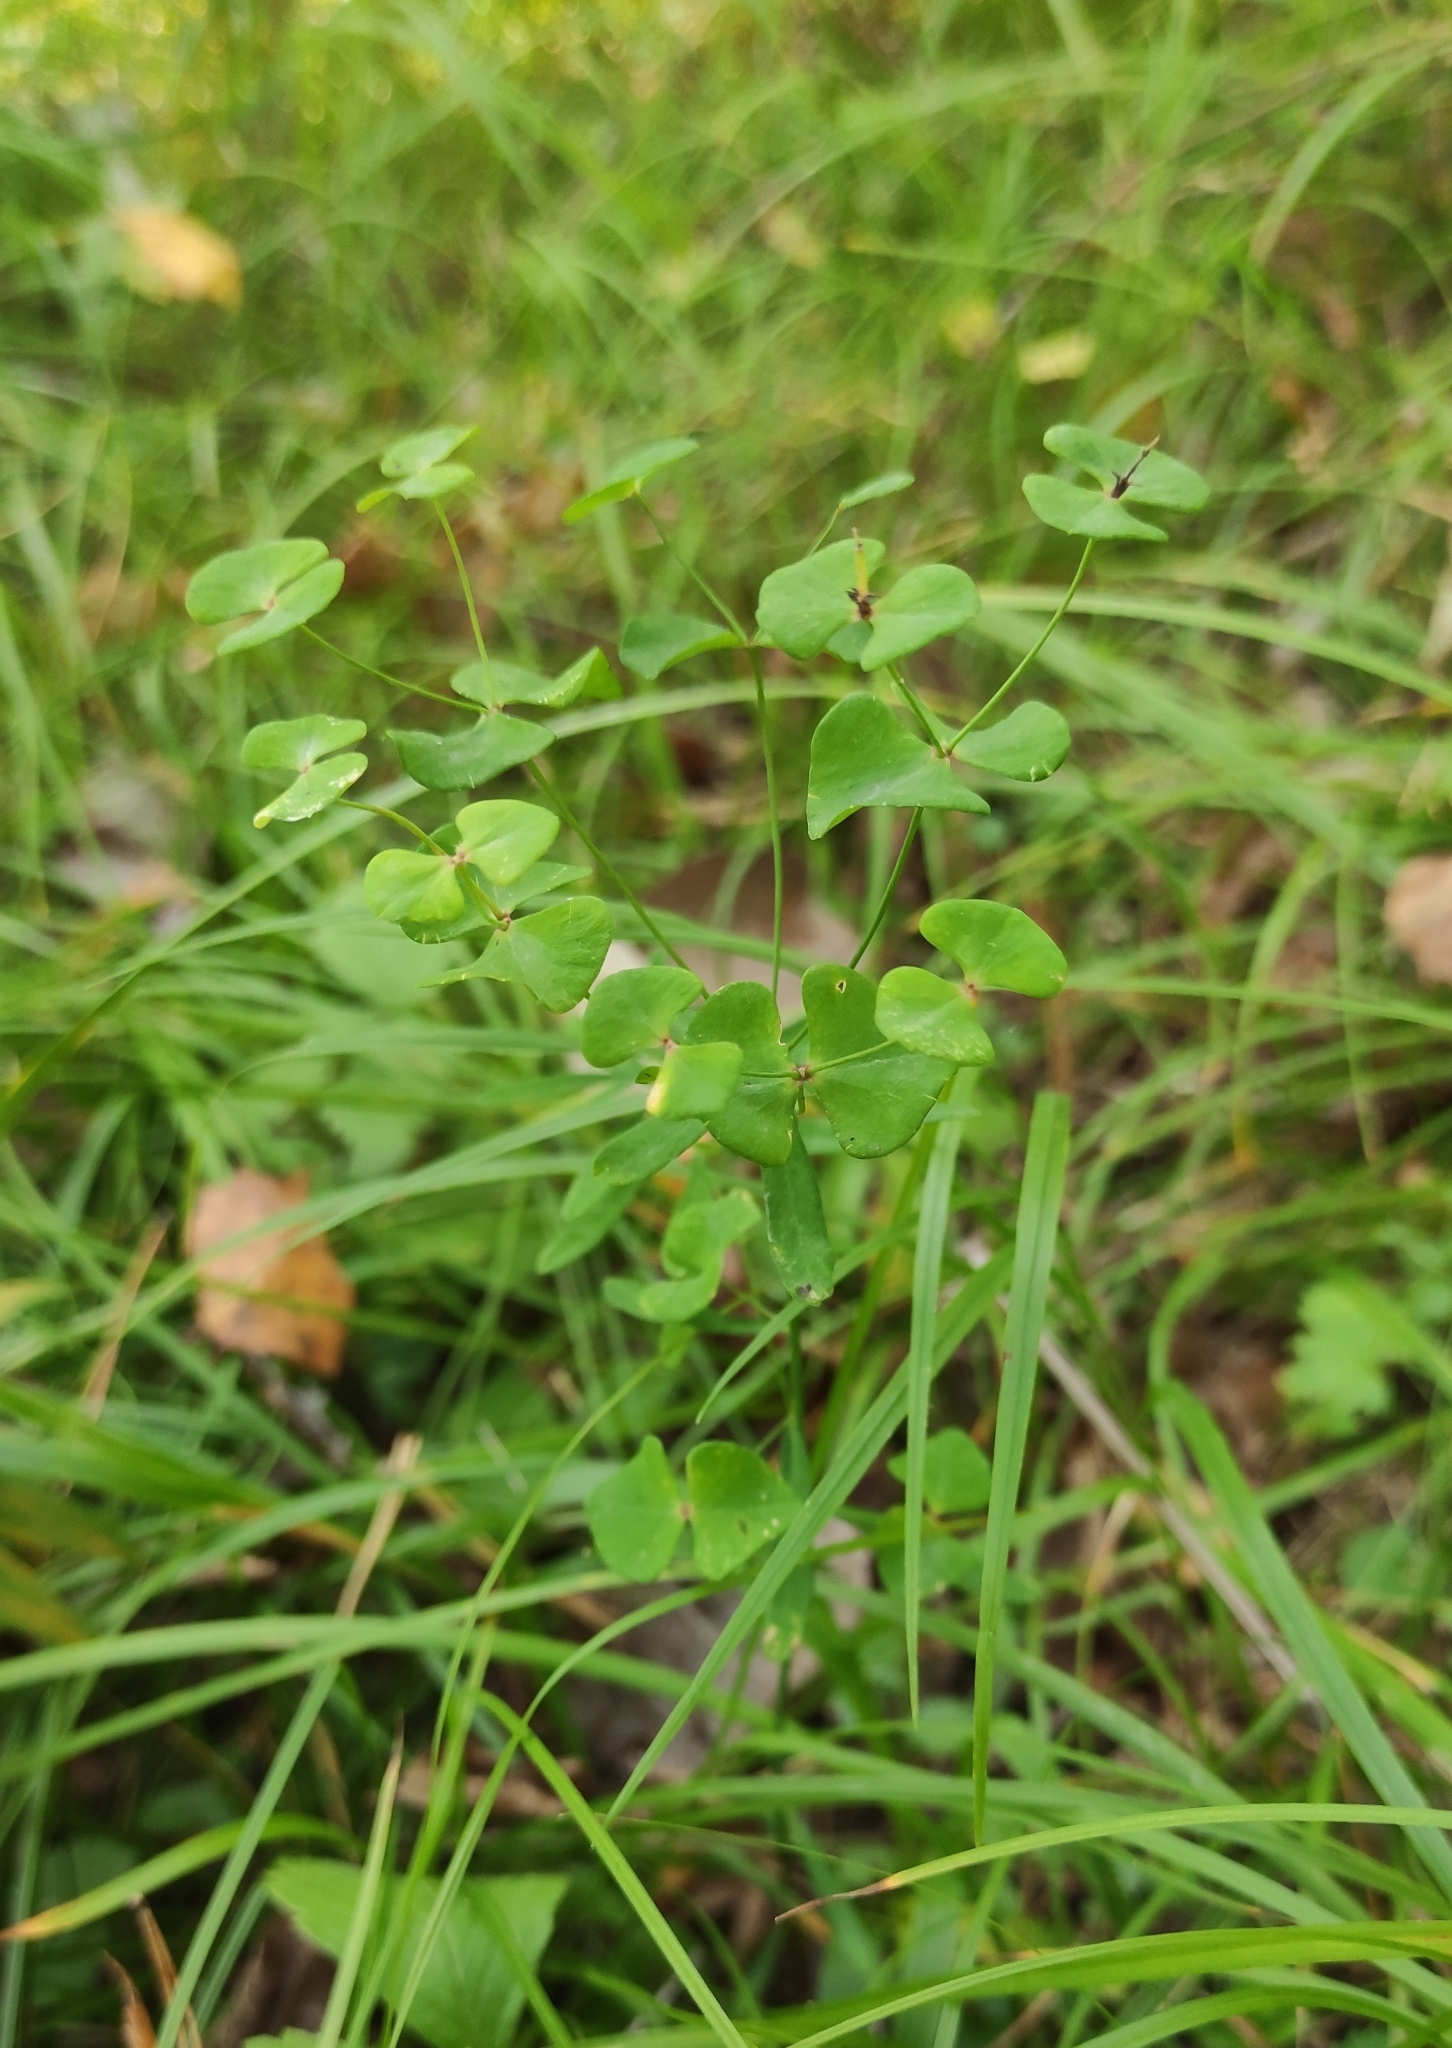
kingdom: Plantae
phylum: Tracheophyta
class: Magnoliopsida
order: Malpighiales
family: Euphorbiaceae
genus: Euphorbia
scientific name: Euphorbia borealis
